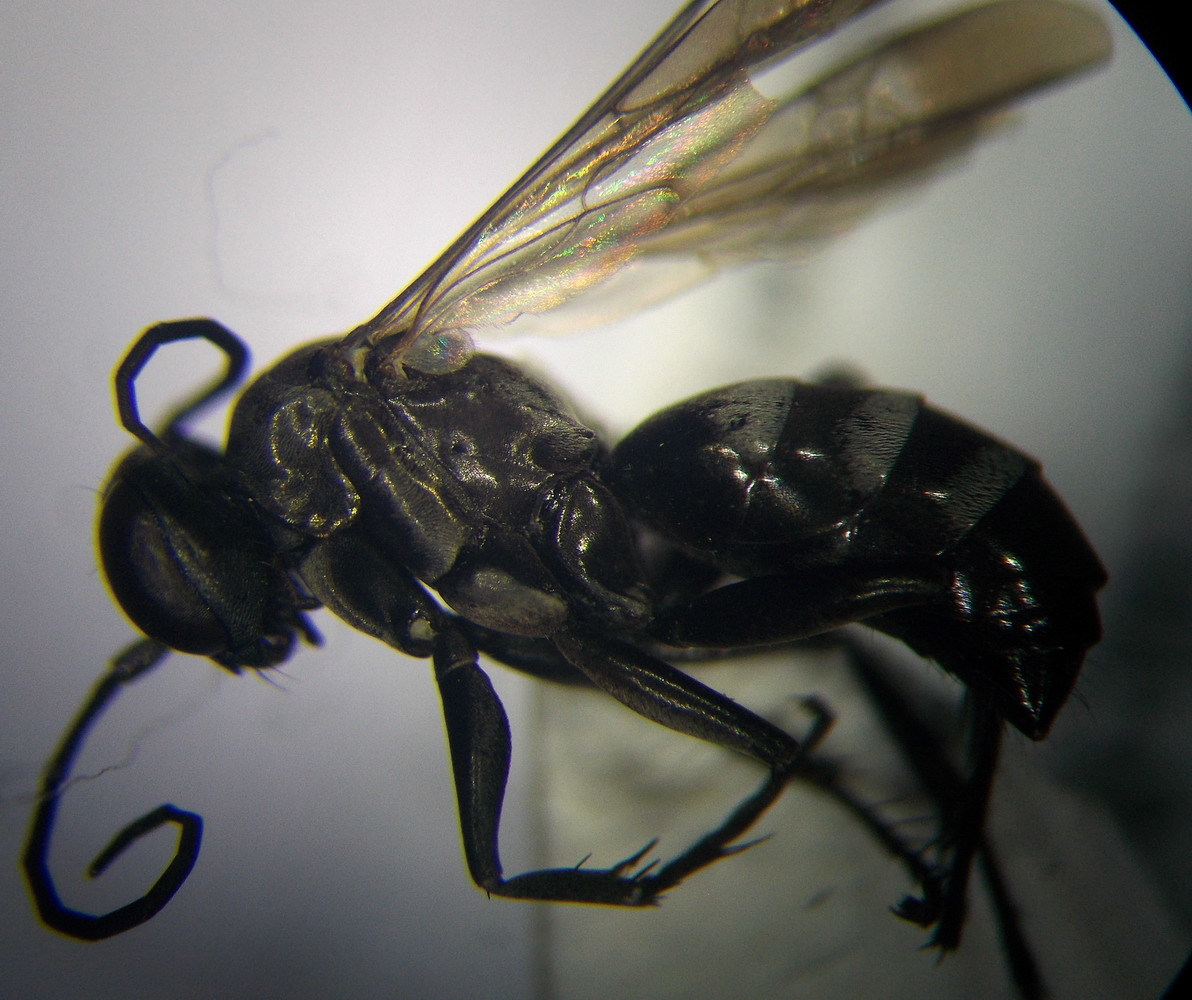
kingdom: Animalia
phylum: Arthropoda
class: Insecta
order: Hymenoptera
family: Pompilidae
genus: Aporinellus
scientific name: Aporinellus sexmaculatus
